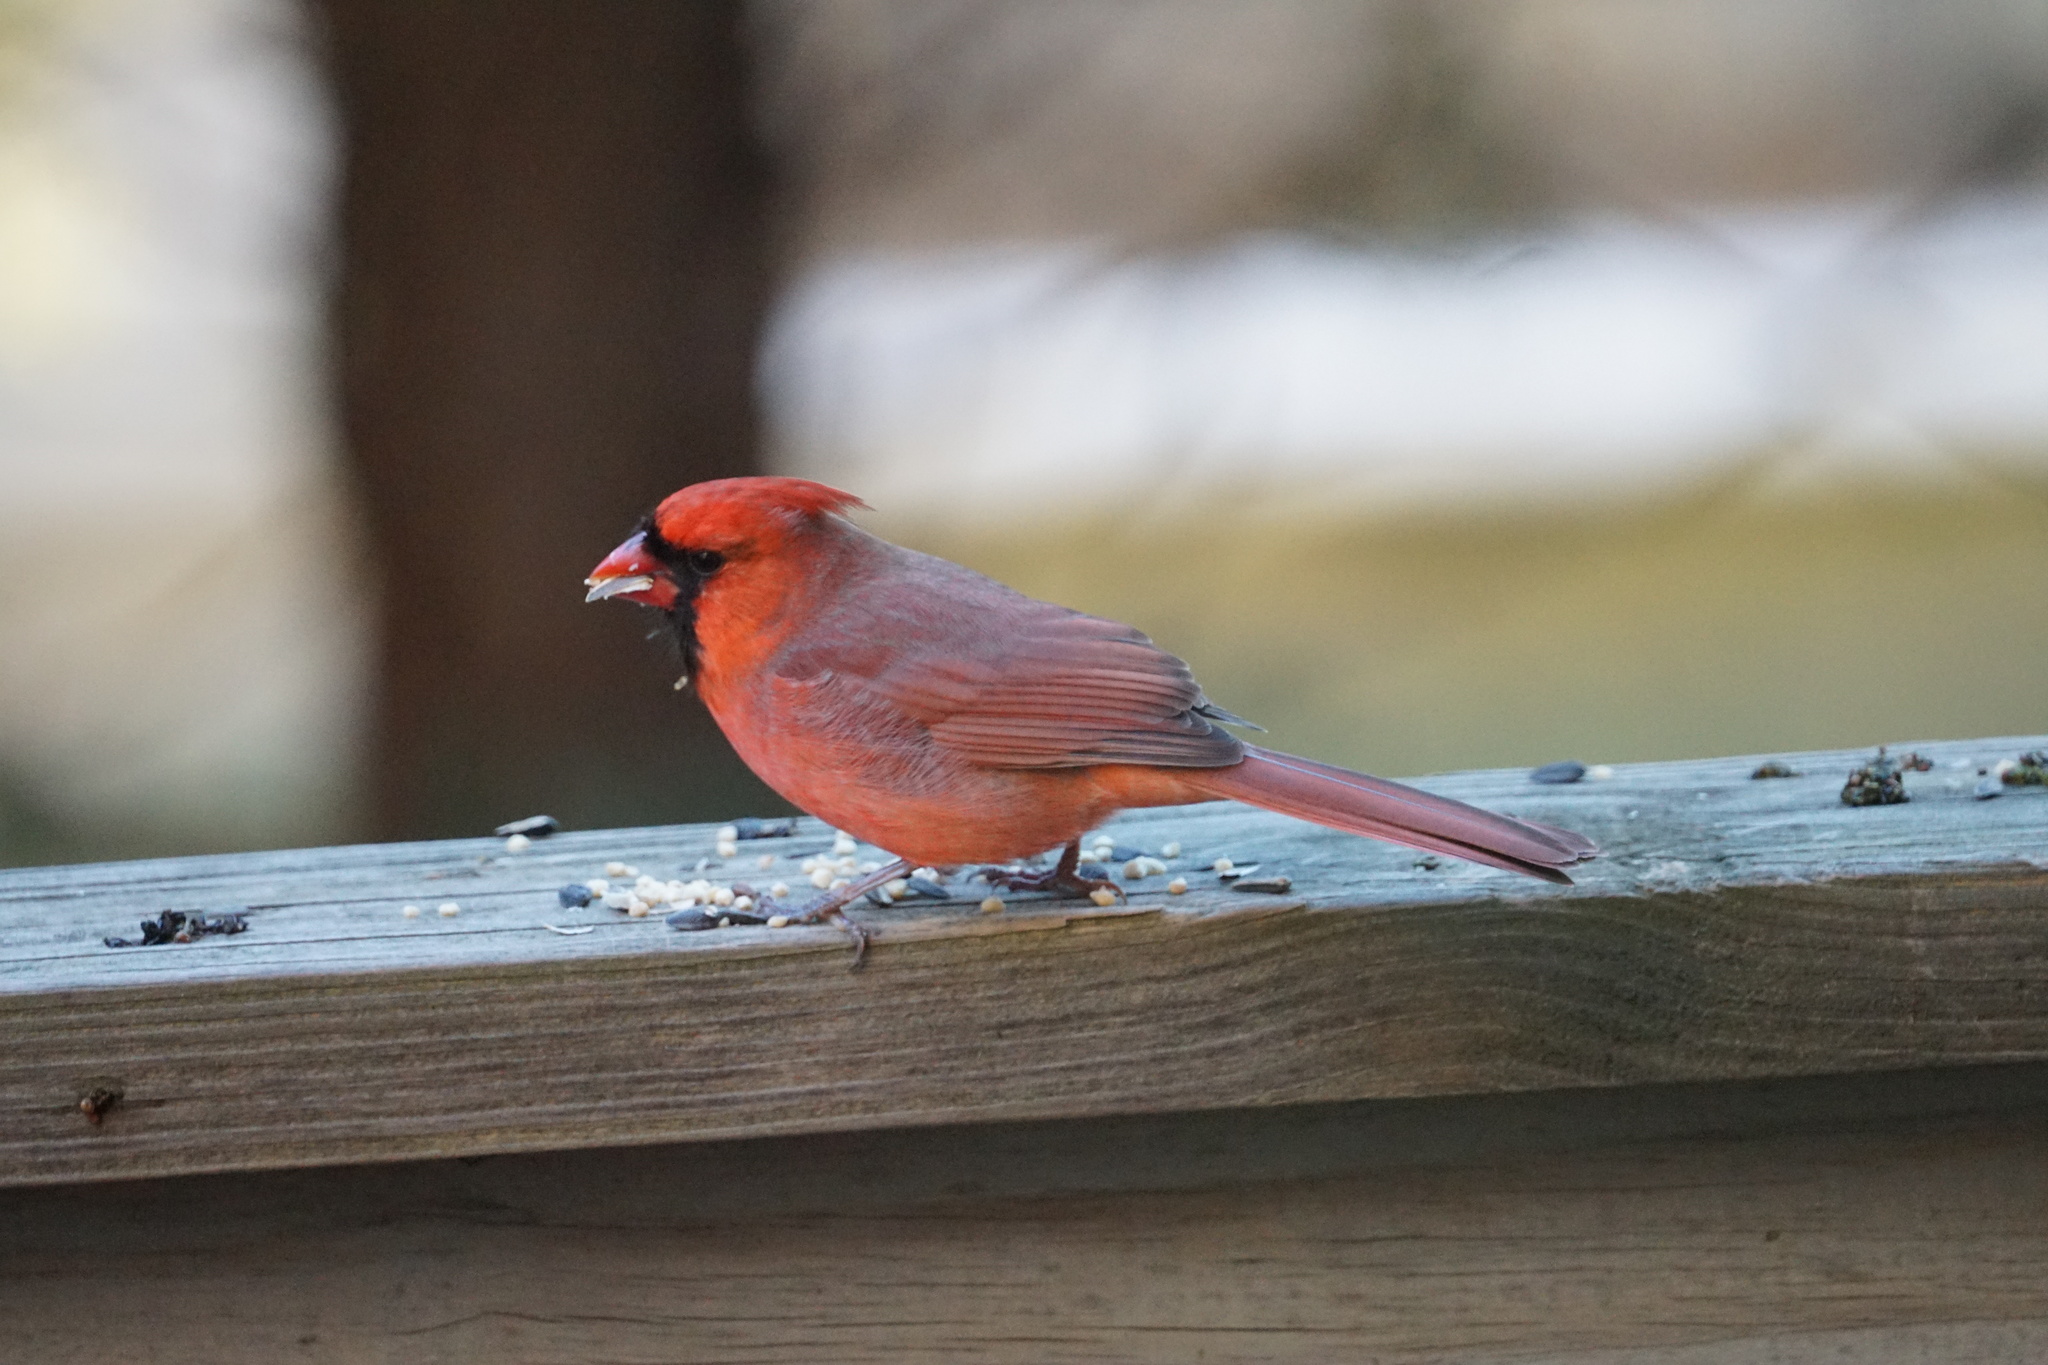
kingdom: Animalia
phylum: Chordata
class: Aves
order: Passeriformes
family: Cardinalidae
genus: Cardinalis
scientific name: Cardinalis cardinalis
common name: Northern cardinal
